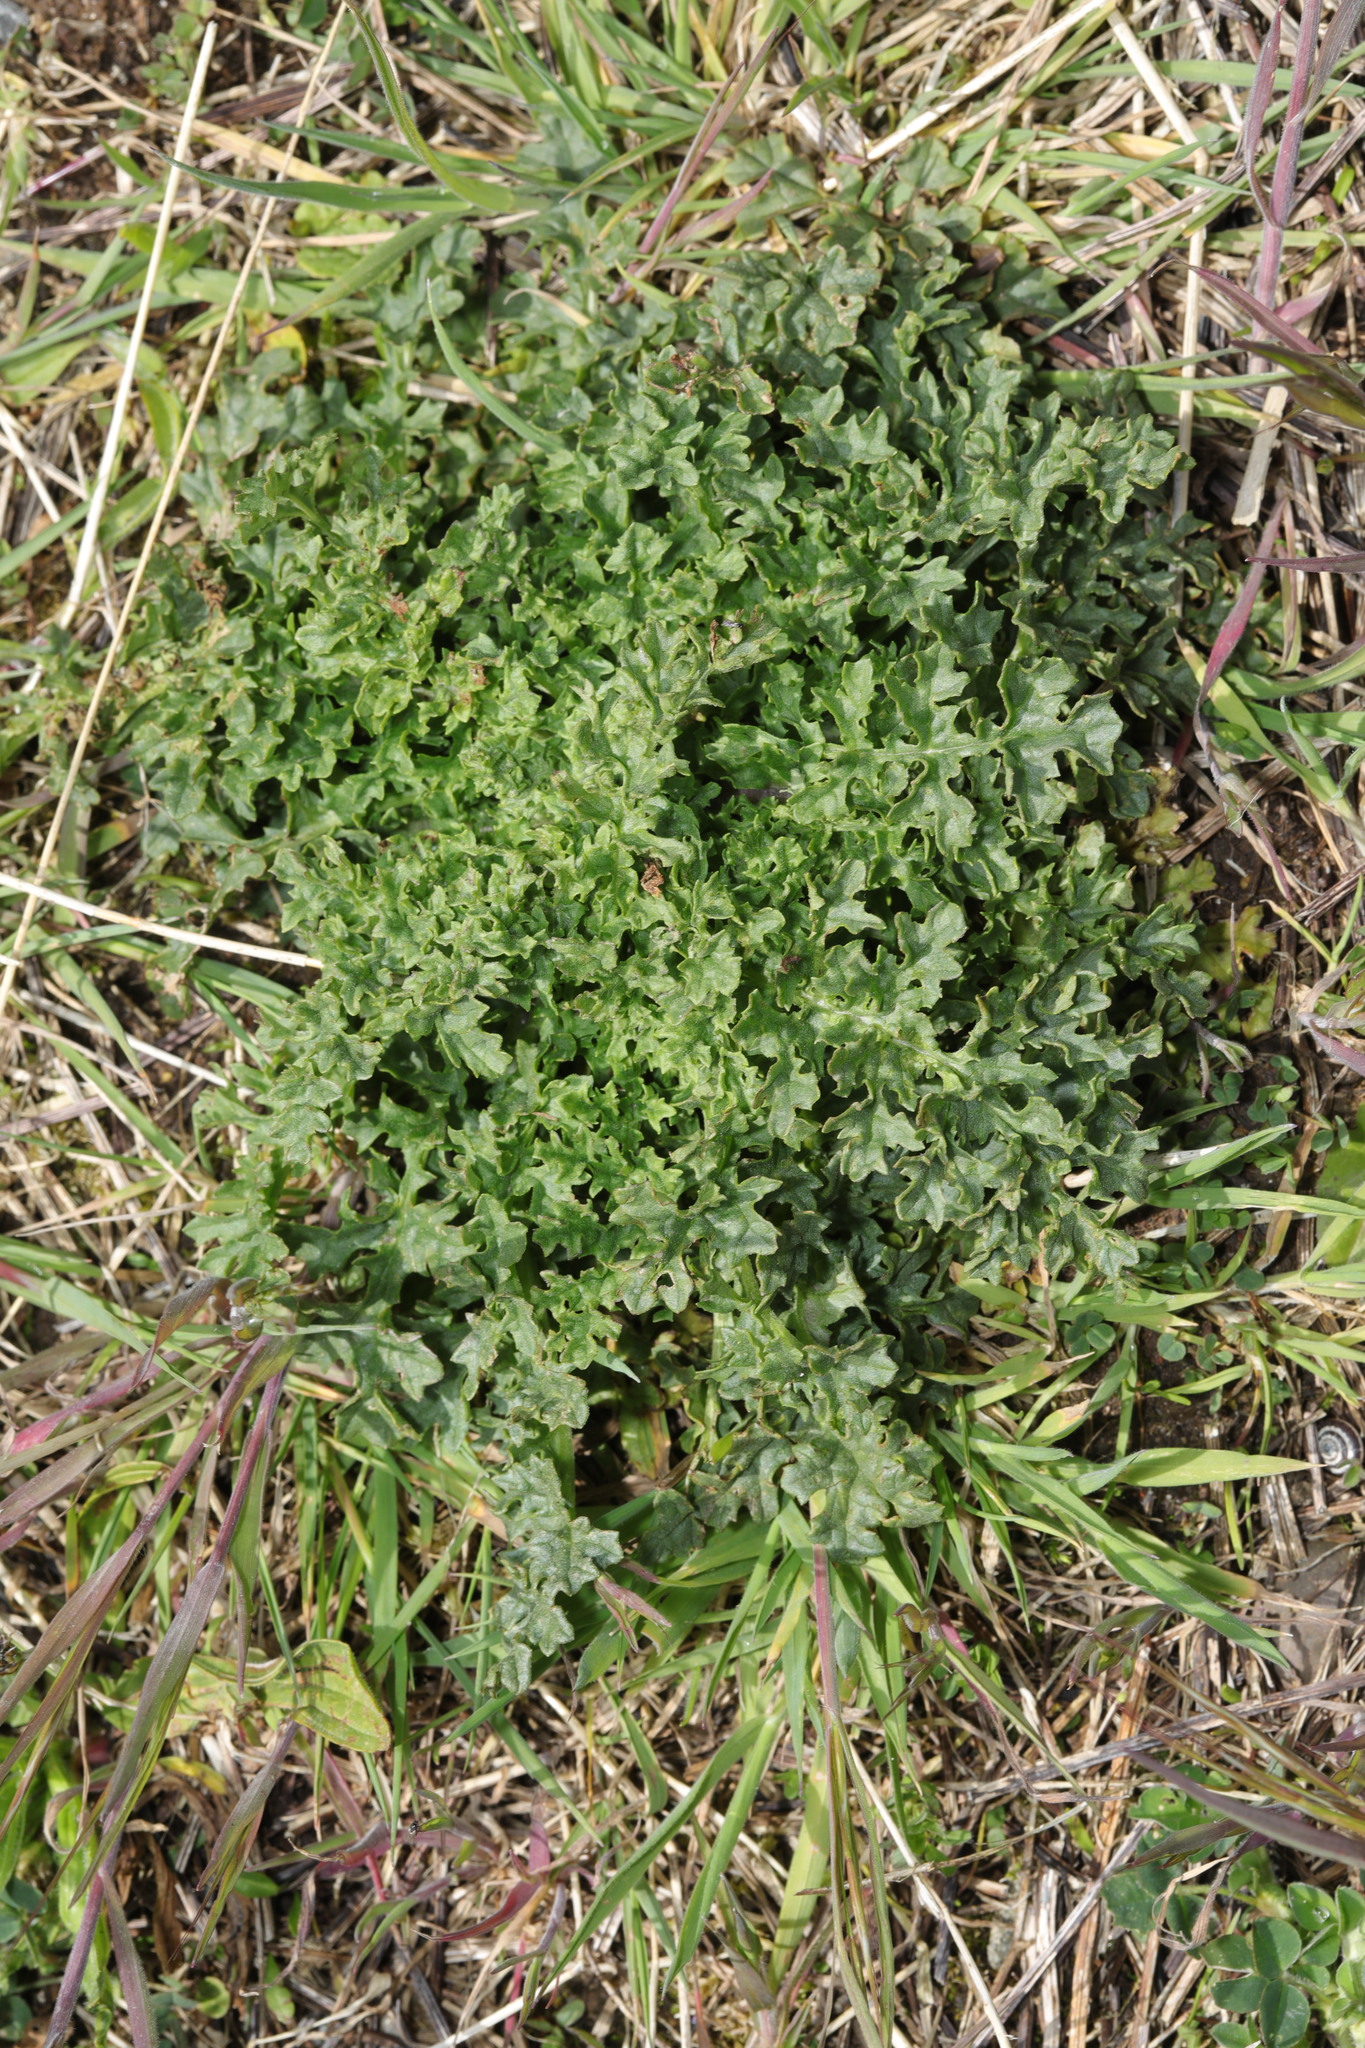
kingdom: Plantae
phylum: Tracheophyta
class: Magnoliopsida
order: Asterales
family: Asteraceae
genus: Jacobaea
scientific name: Jacobaea vulgaris
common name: Stinking willie
